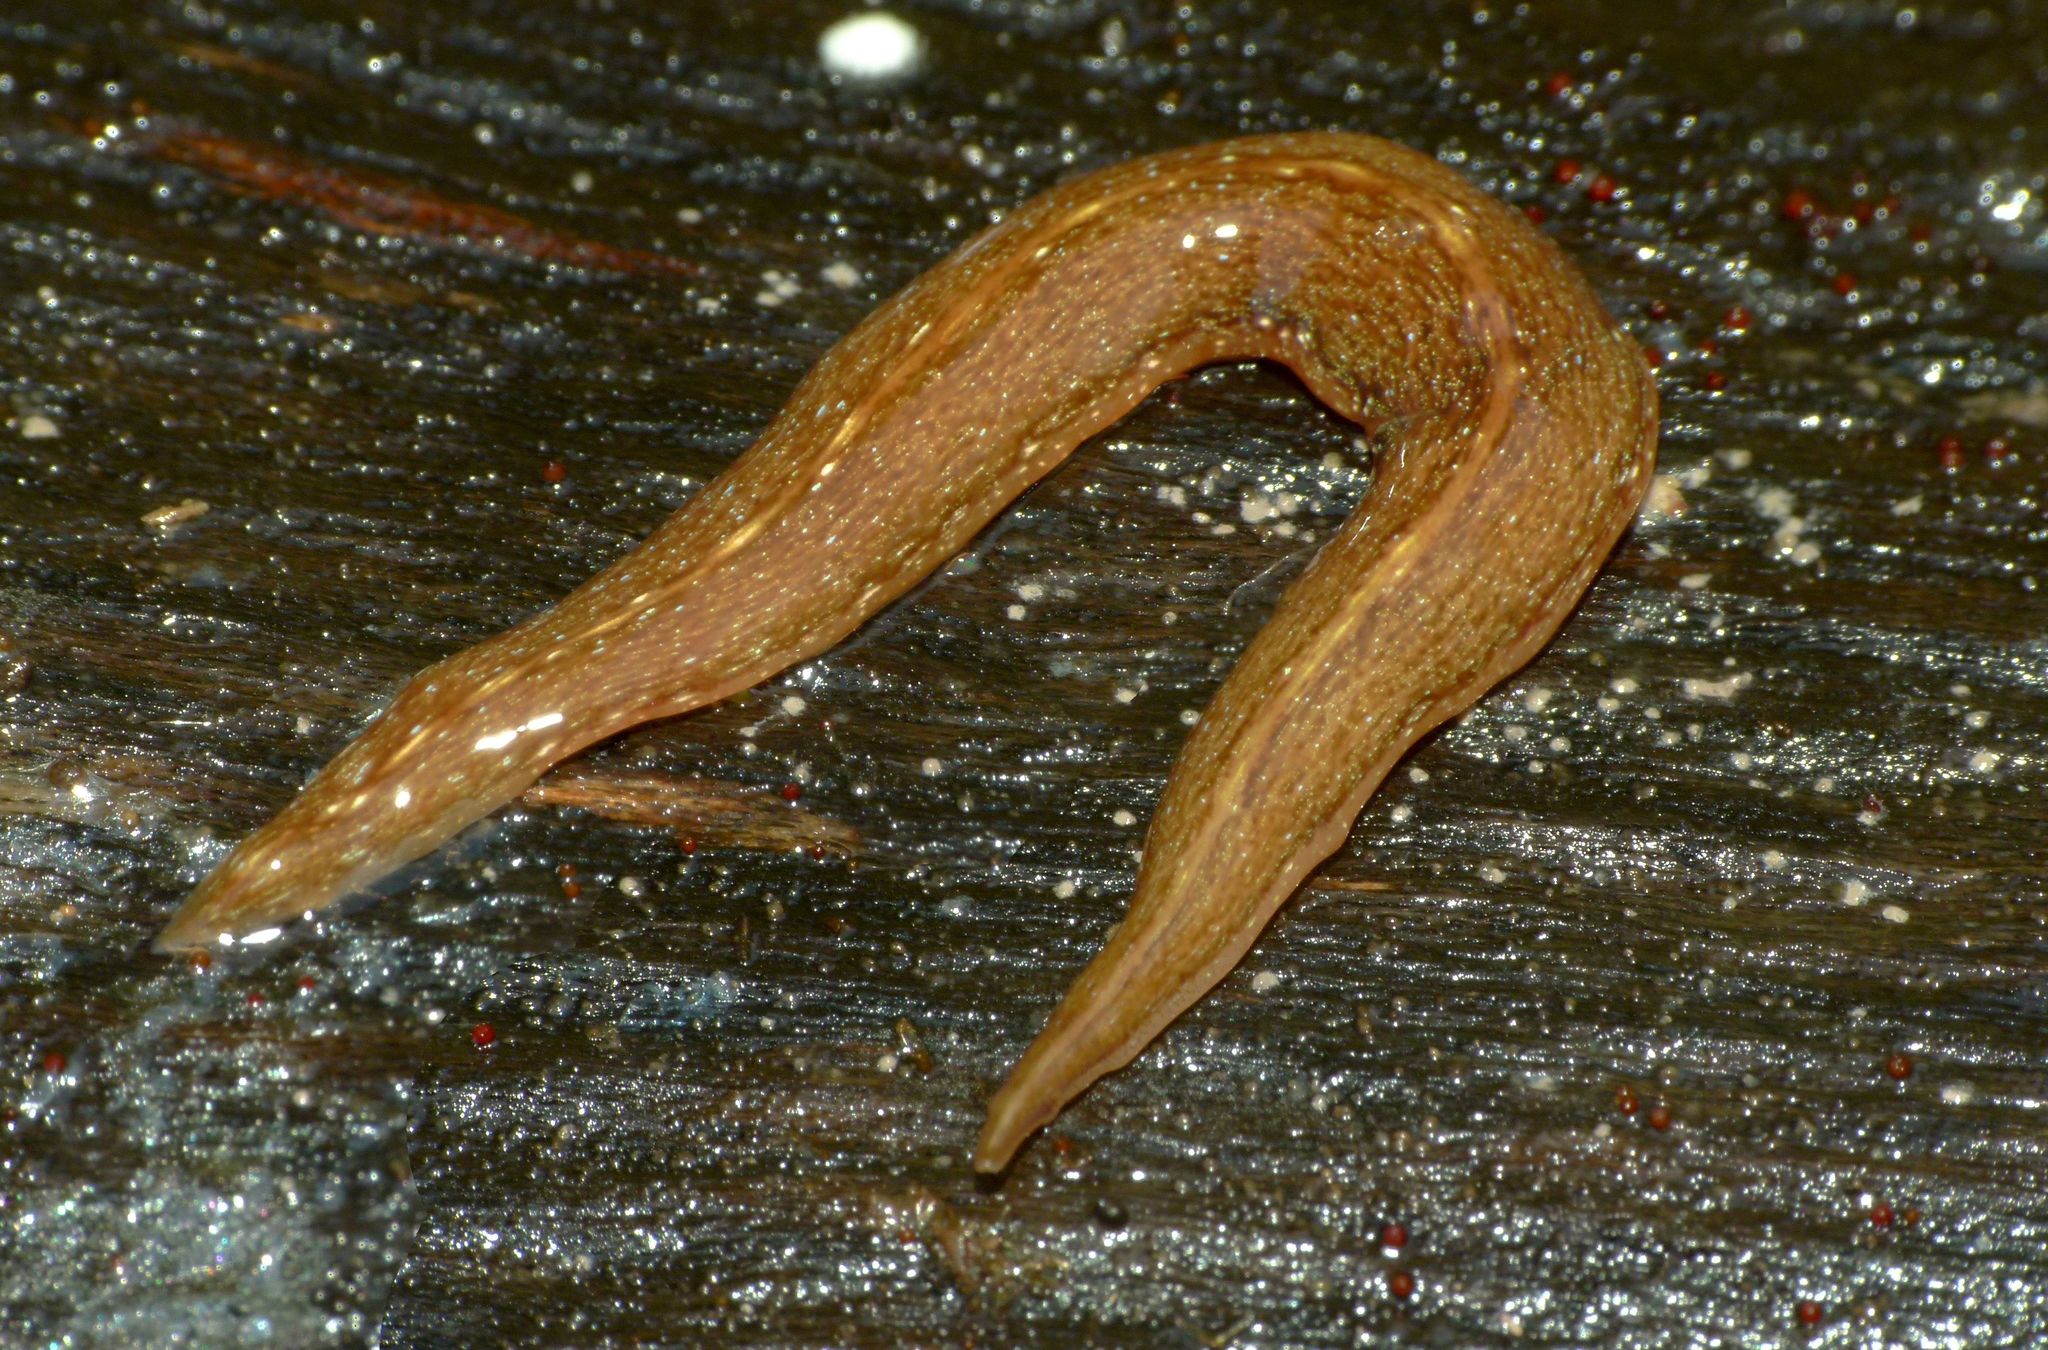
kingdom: Animalia
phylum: Platyhelminthes
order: Tricladida
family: Geoplanidae
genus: Australopacifica
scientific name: Australopacifica
